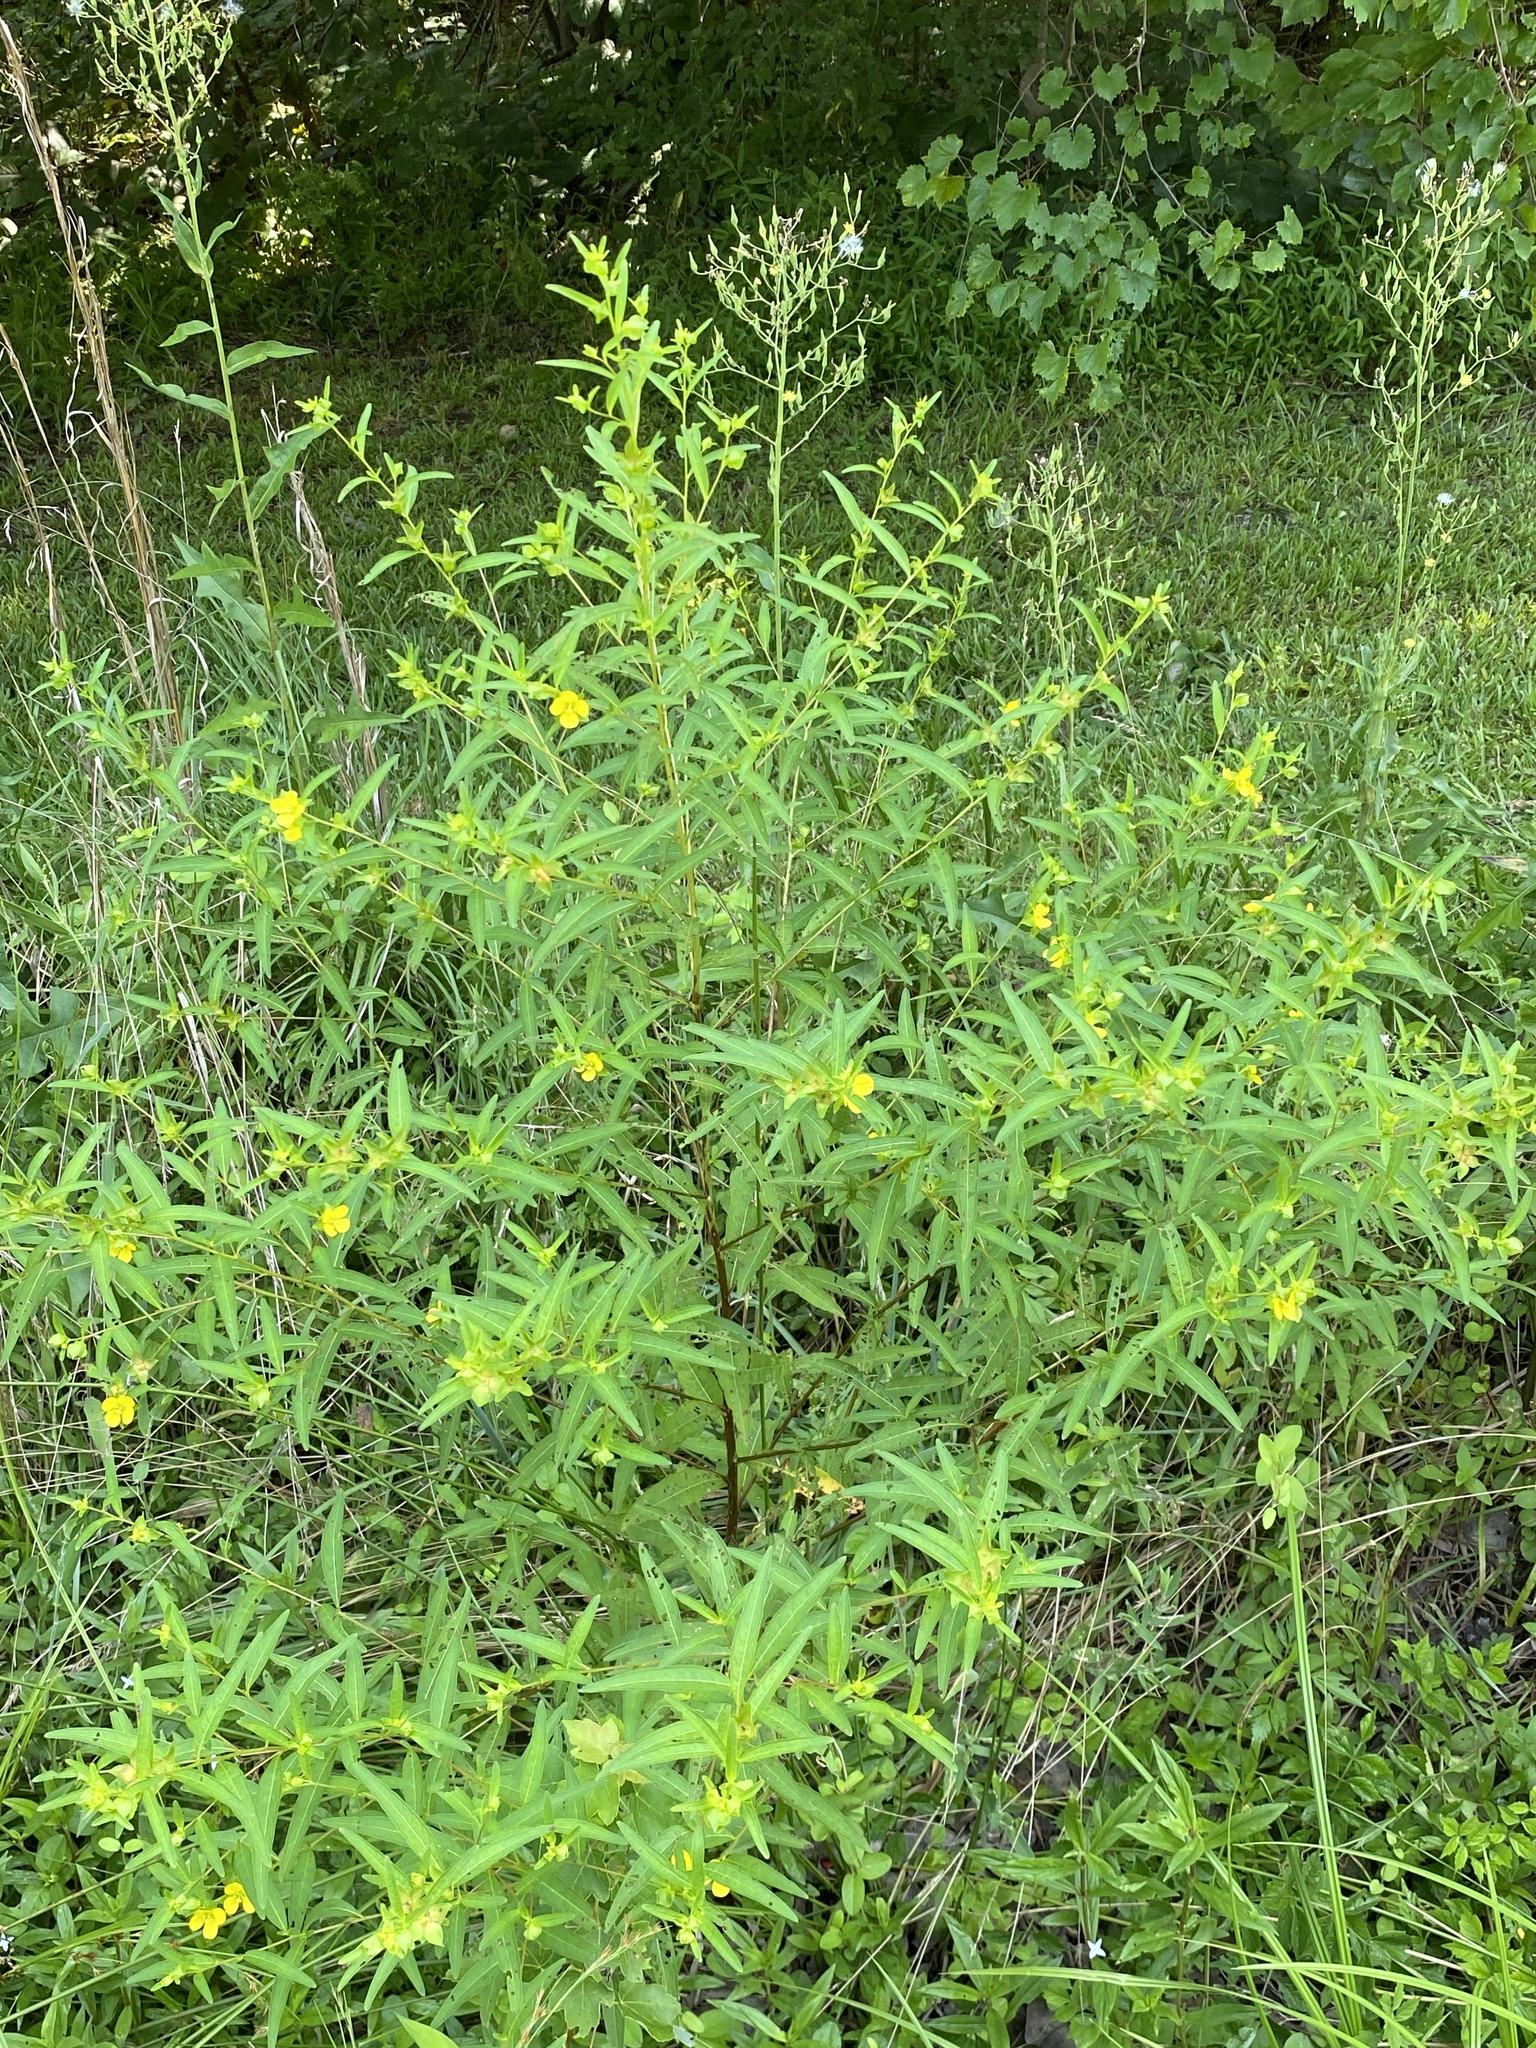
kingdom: Plantae
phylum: Tracheophyta
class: Magnoliopsida
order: Myrtales
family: Onagraceae
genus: Ludwigia
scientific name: Ludwigia alternifolia
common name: Rattlebox
